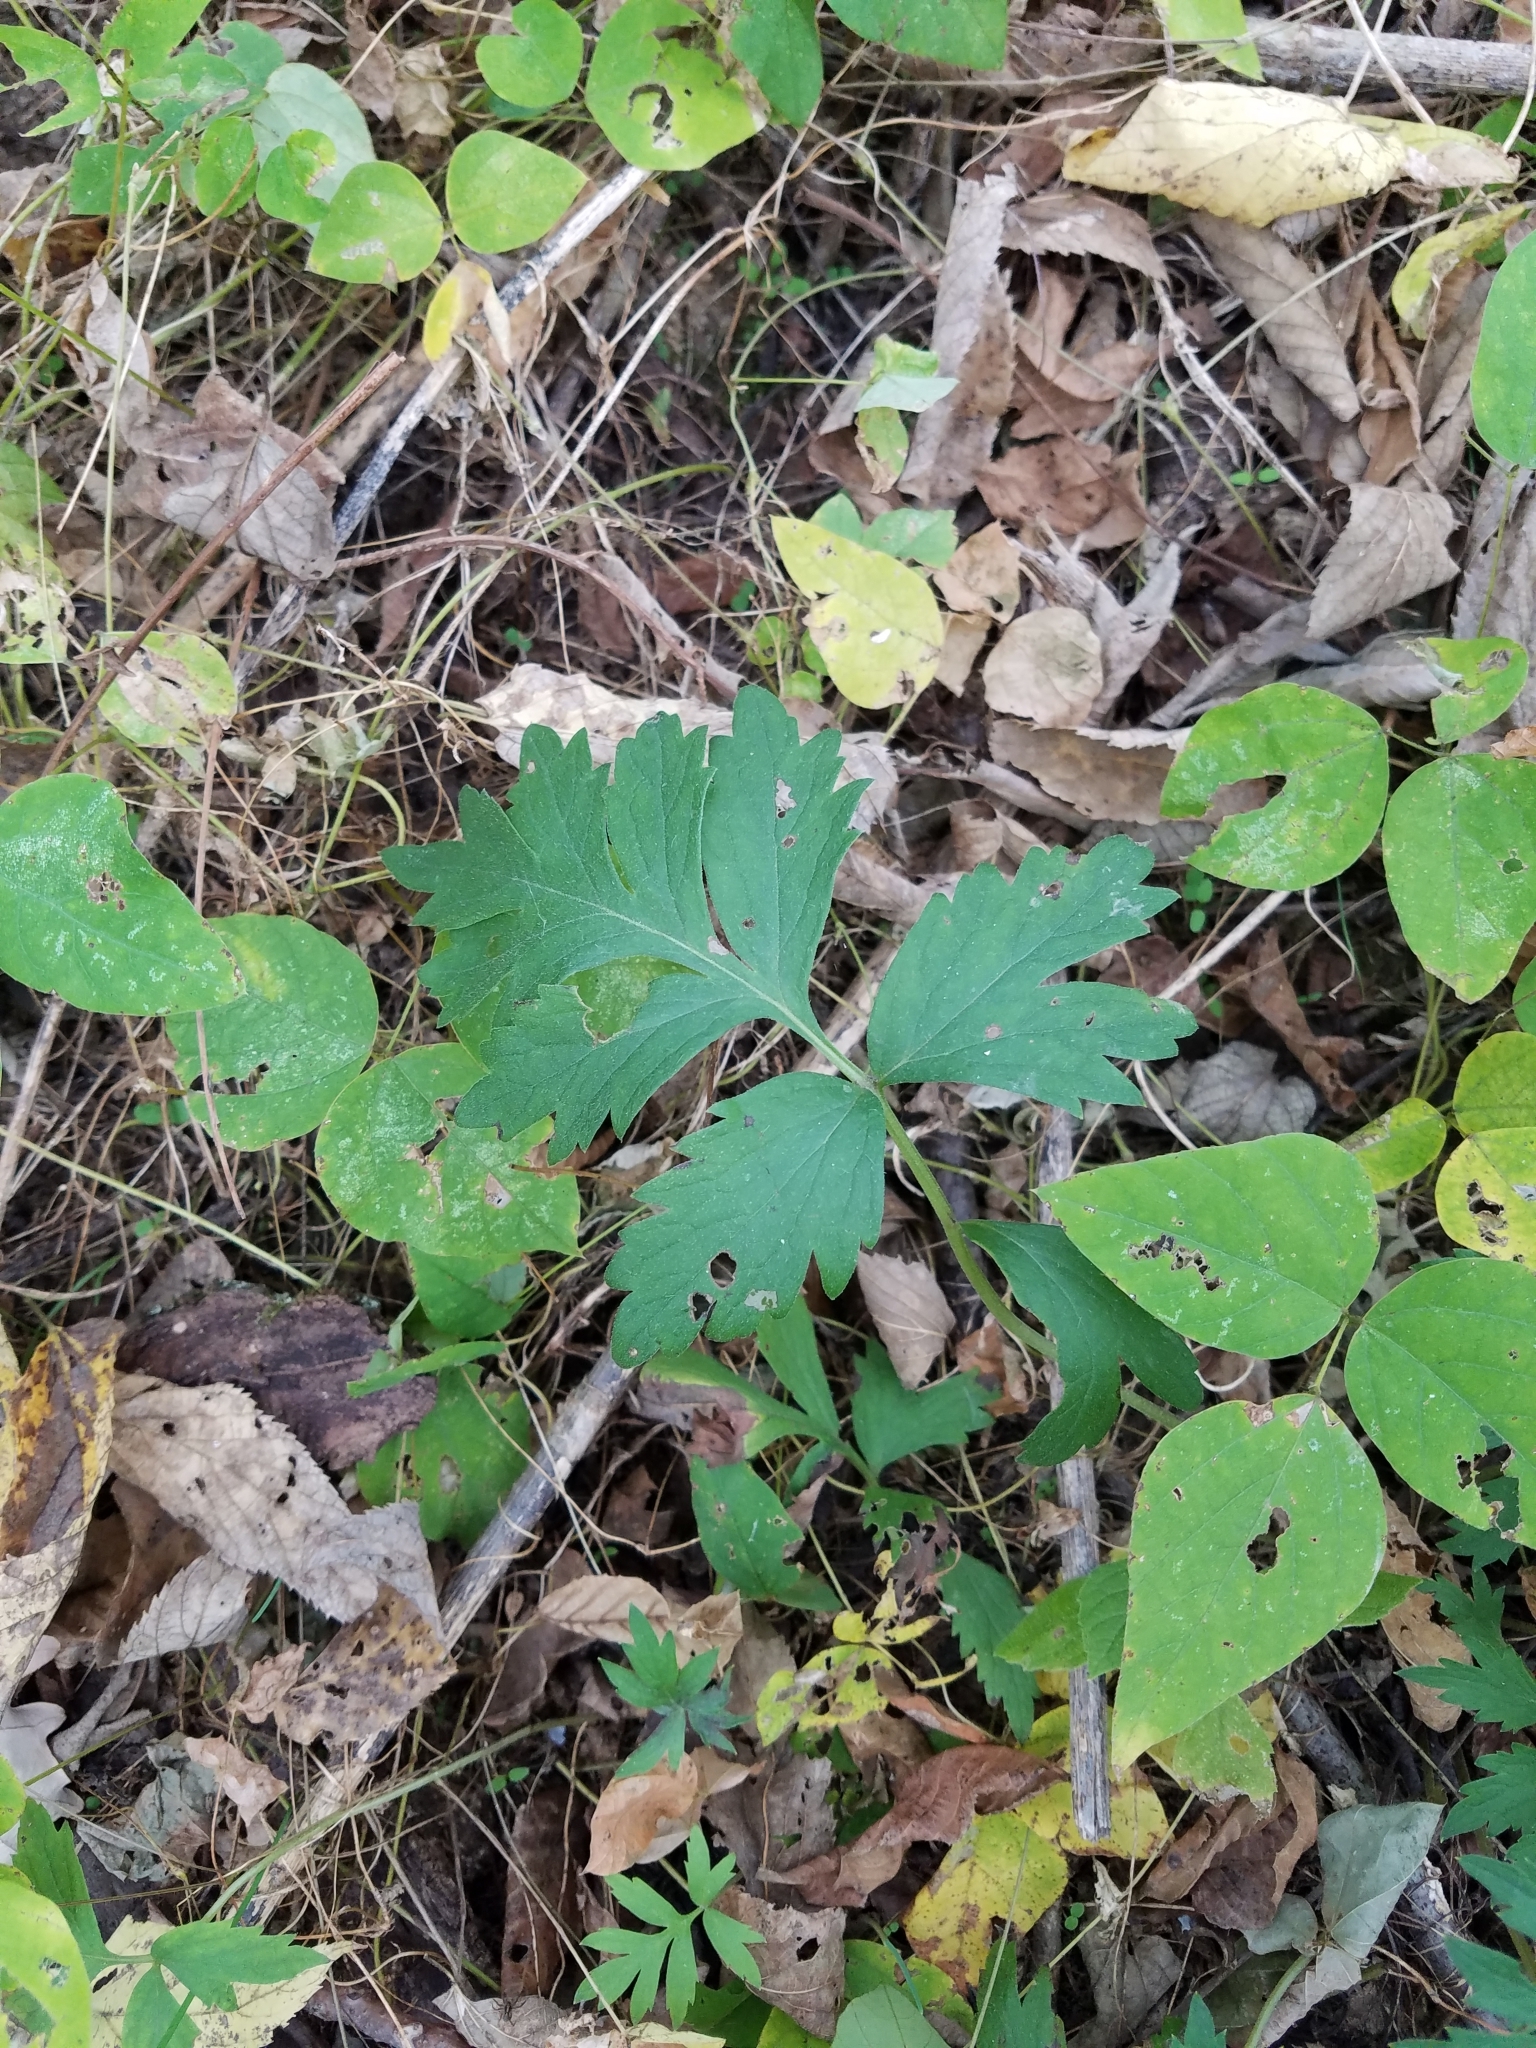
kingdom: Plantae
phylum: Tracheophyta
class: Magnoliopsida
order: Boraginales
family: Hydrophyllaceae
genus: Hydrophyllum
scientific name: Hydrophyllum virginianum
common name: Virginia waterleaf
